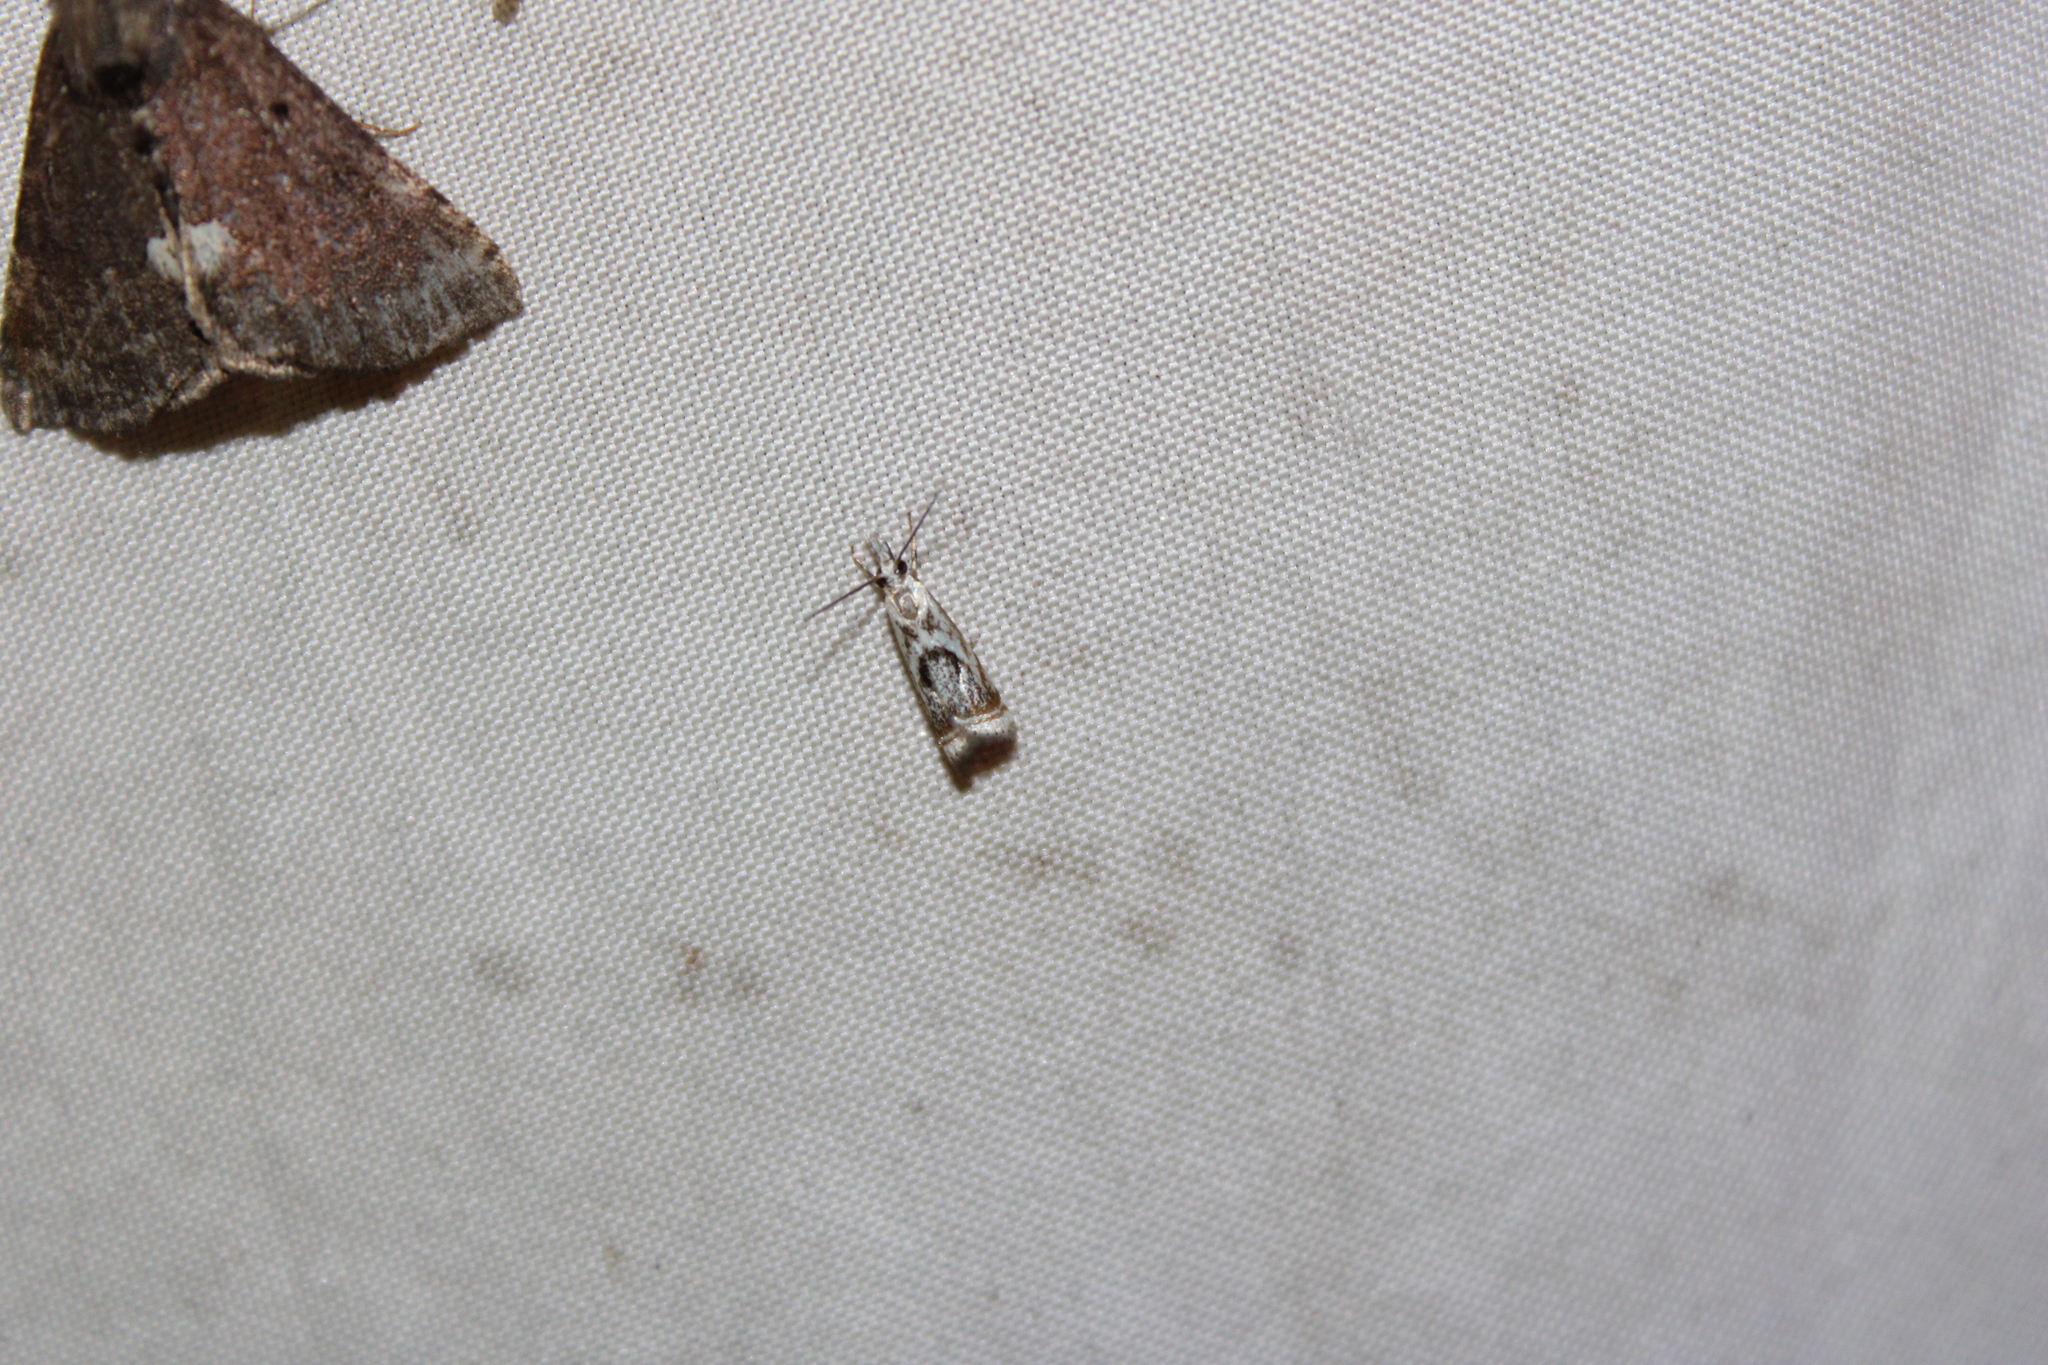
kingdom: Animalia
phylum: Arthropoda
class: Insecta
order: Lepidoptera
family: Crambidae
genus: Microcrambus
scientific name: Microcrambus elegans
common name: Elegant grass-veneer
